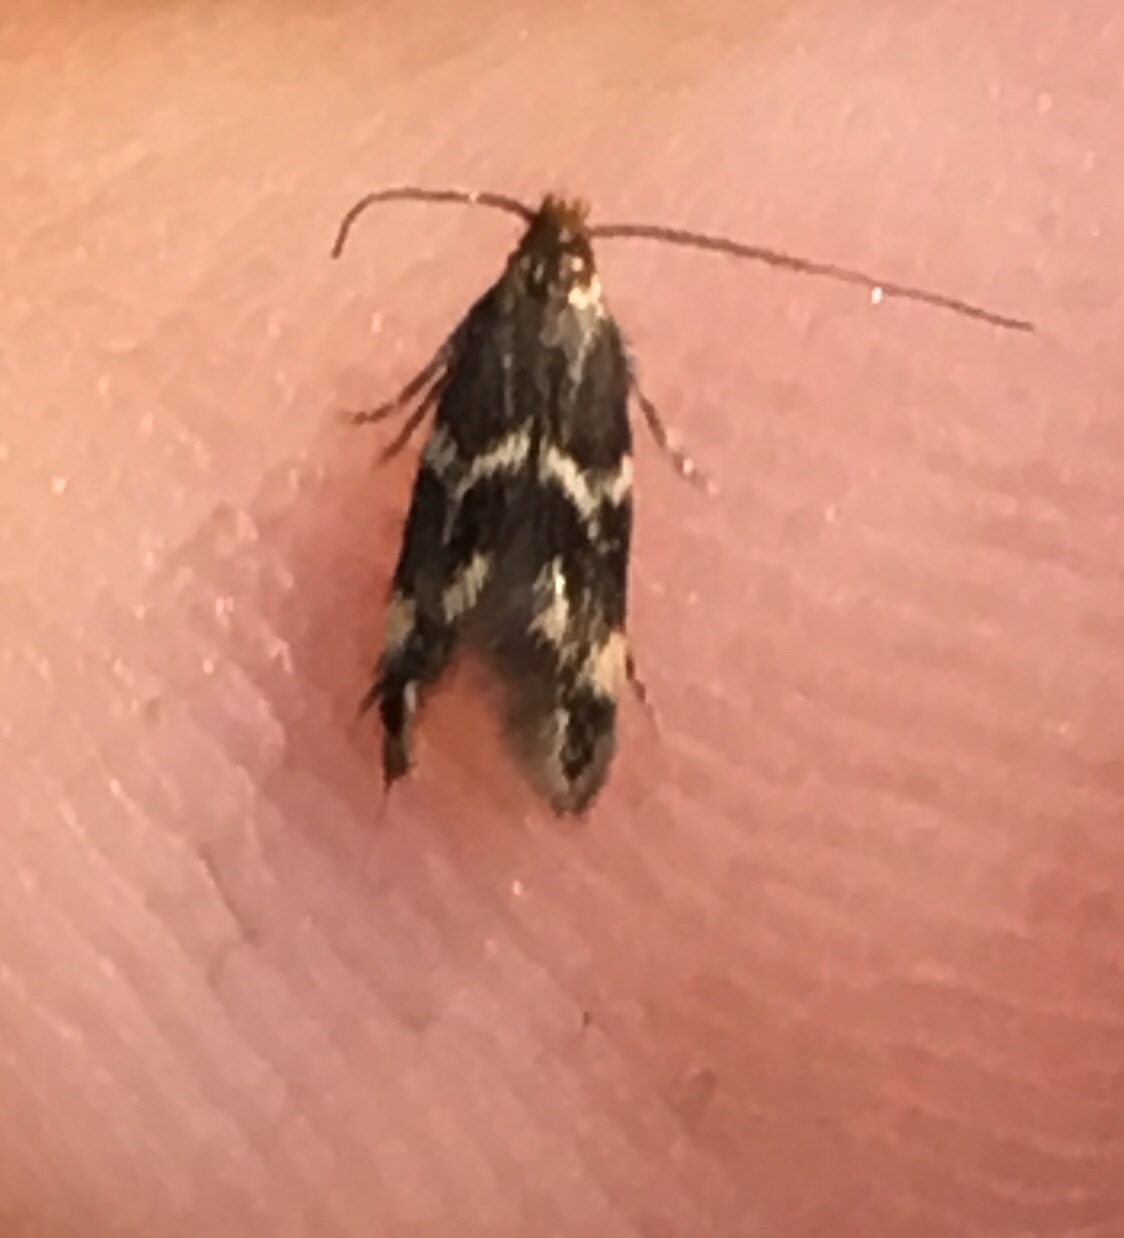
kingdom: Animalia
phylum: Arthropoda
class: Insecta
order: Lepidoptera
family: Tineidae
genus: Oinophila
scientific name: Oinophila v-flava
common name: Yellow v moth
